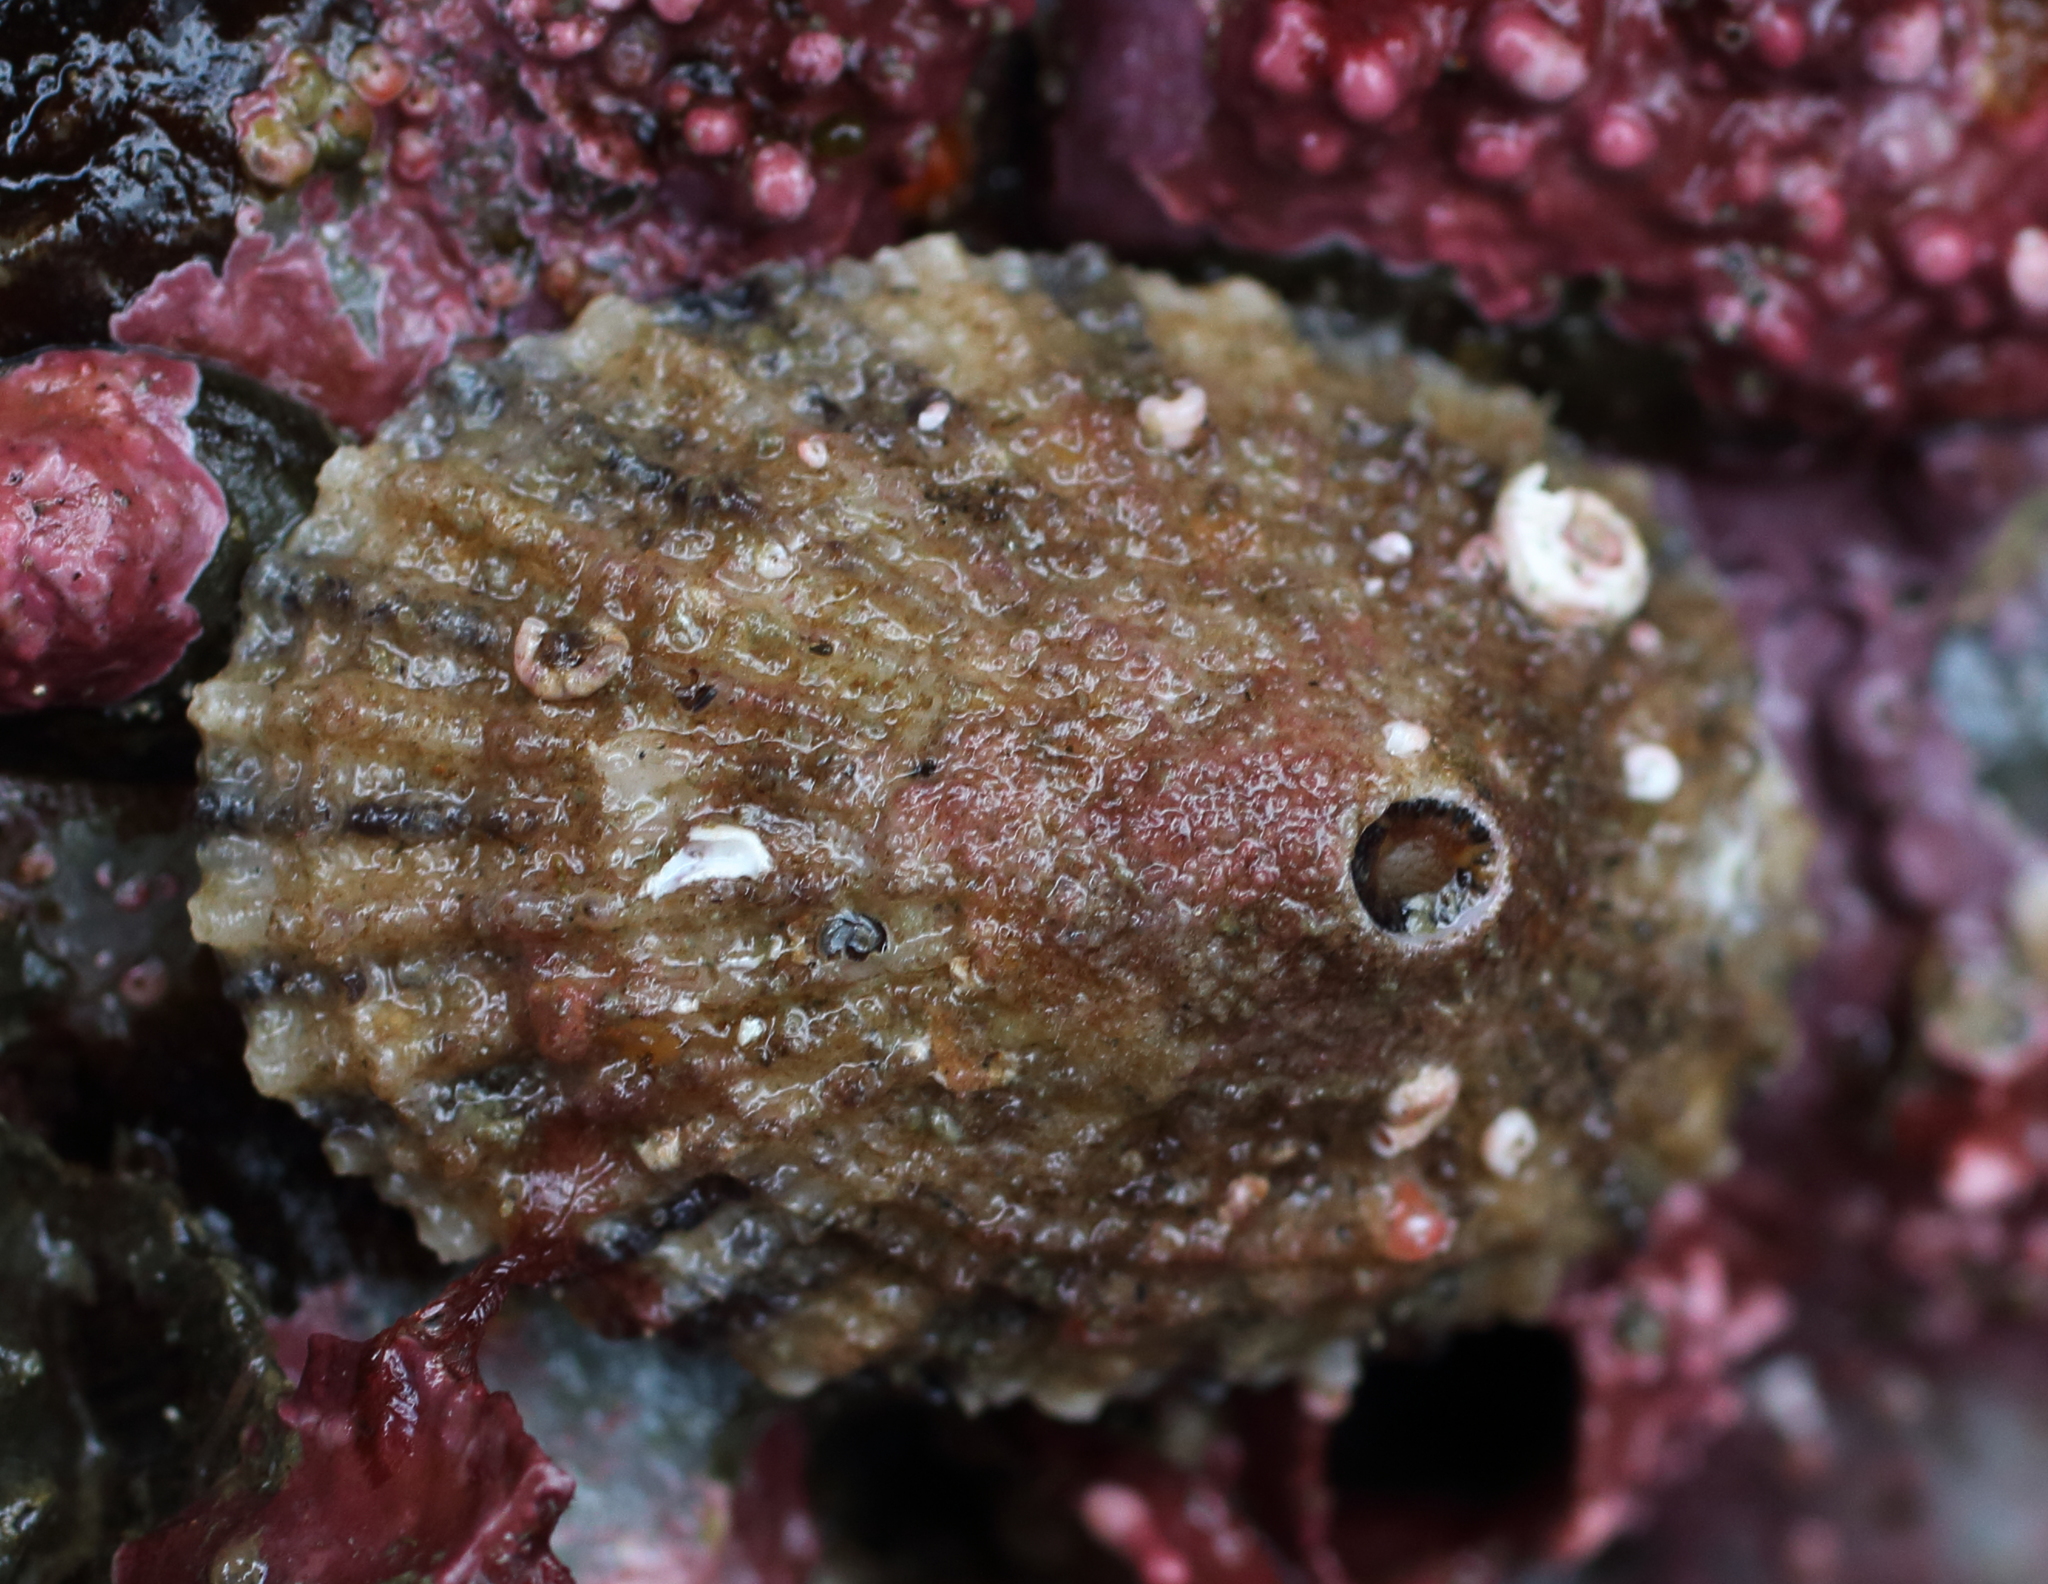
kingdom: Animalia
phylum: Mollusca
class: Gastropoda
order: Lepetellida
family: Fissurellidae
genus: Diodora
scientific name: Diodora aspera
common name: Rough keyhole limpet
